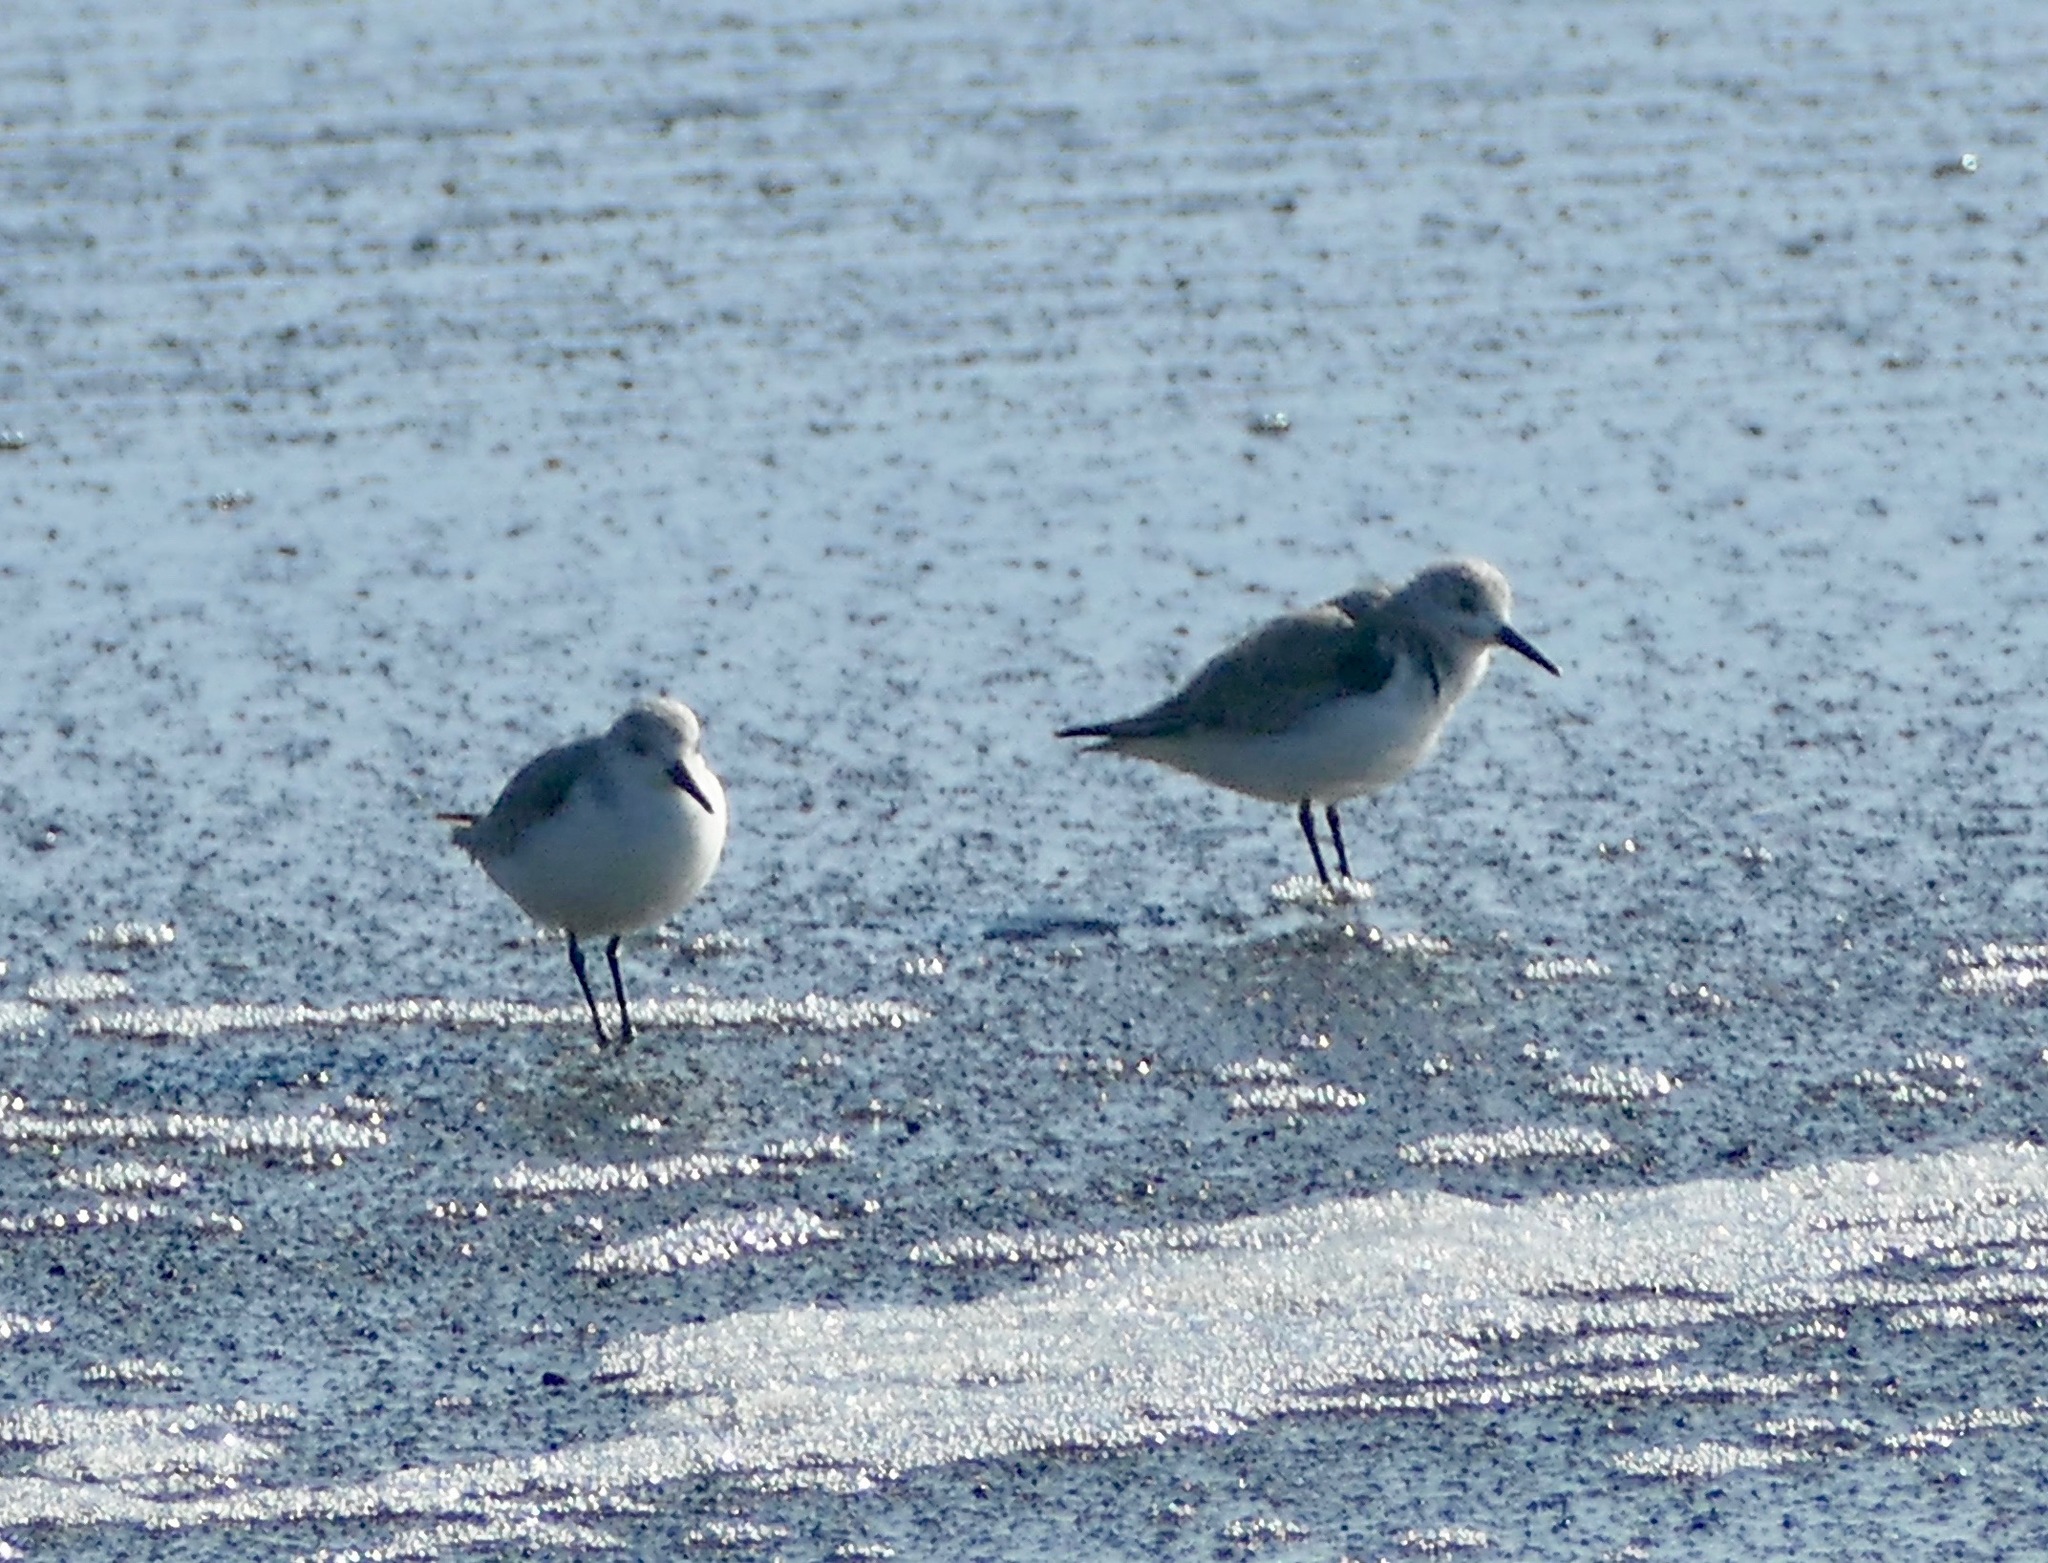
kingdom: Animalia
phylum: Chordata
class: Aves
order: Charadriiformes
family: Scolopacidae
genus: Calidris
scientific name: Calidris alba
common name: Sanderling
